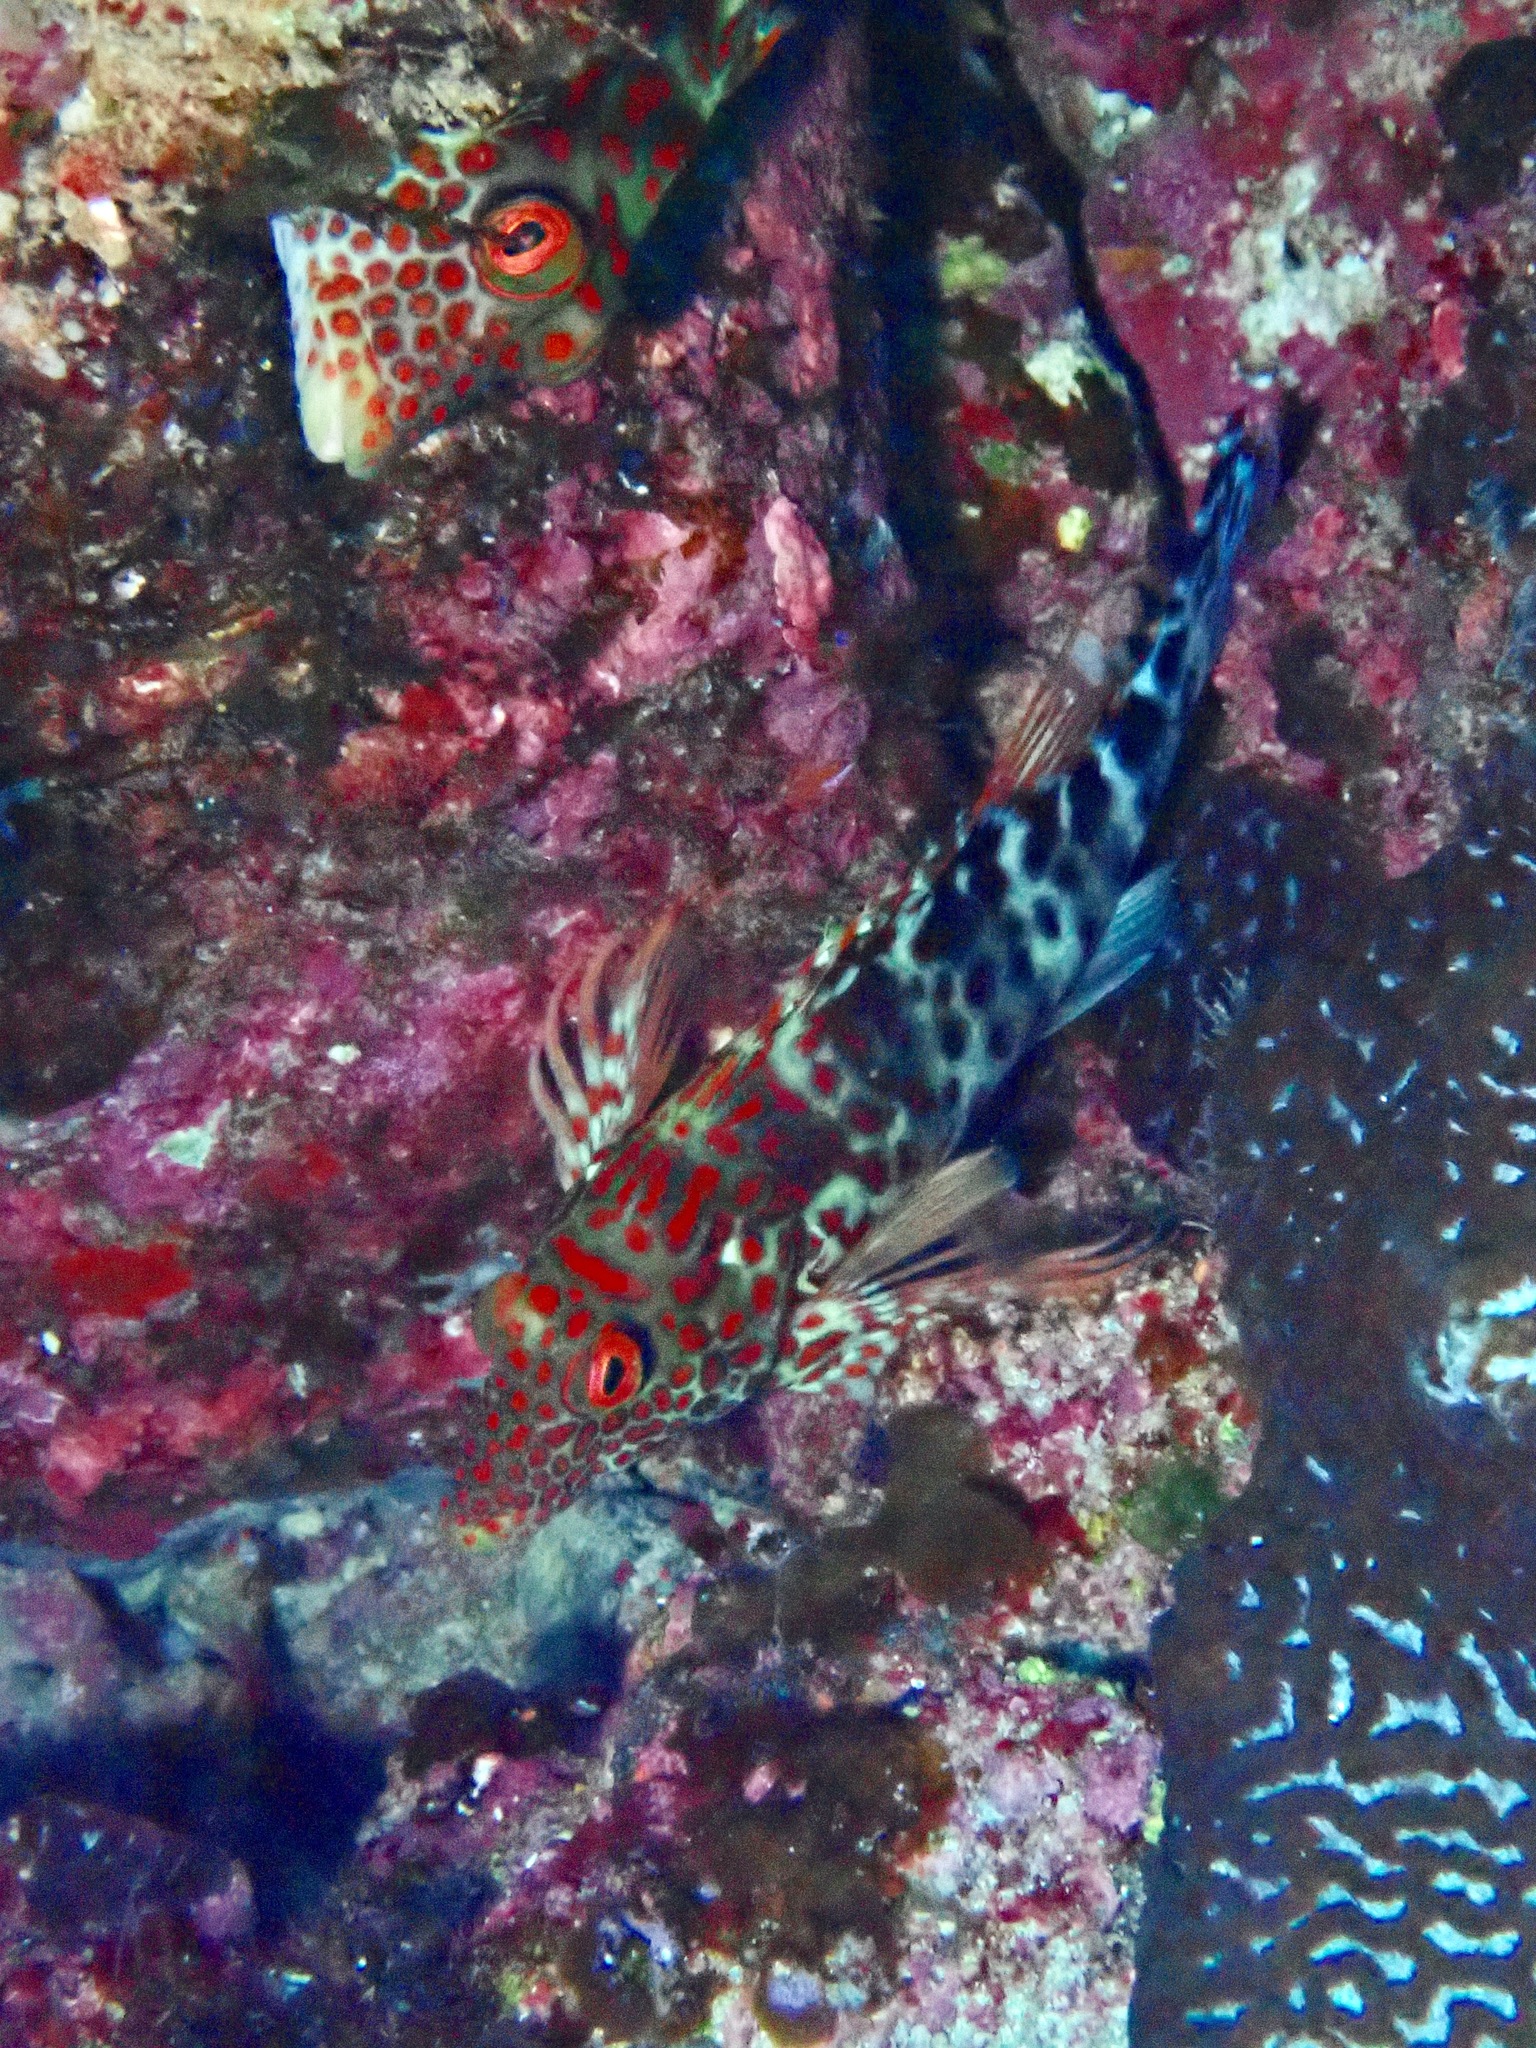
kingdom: Animalia
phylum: Chordata
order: Perciformes
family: Cirrhitidae
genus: Notocirrhitus
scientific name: Notocirrhitus splendens
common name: Splendid hawkfish
